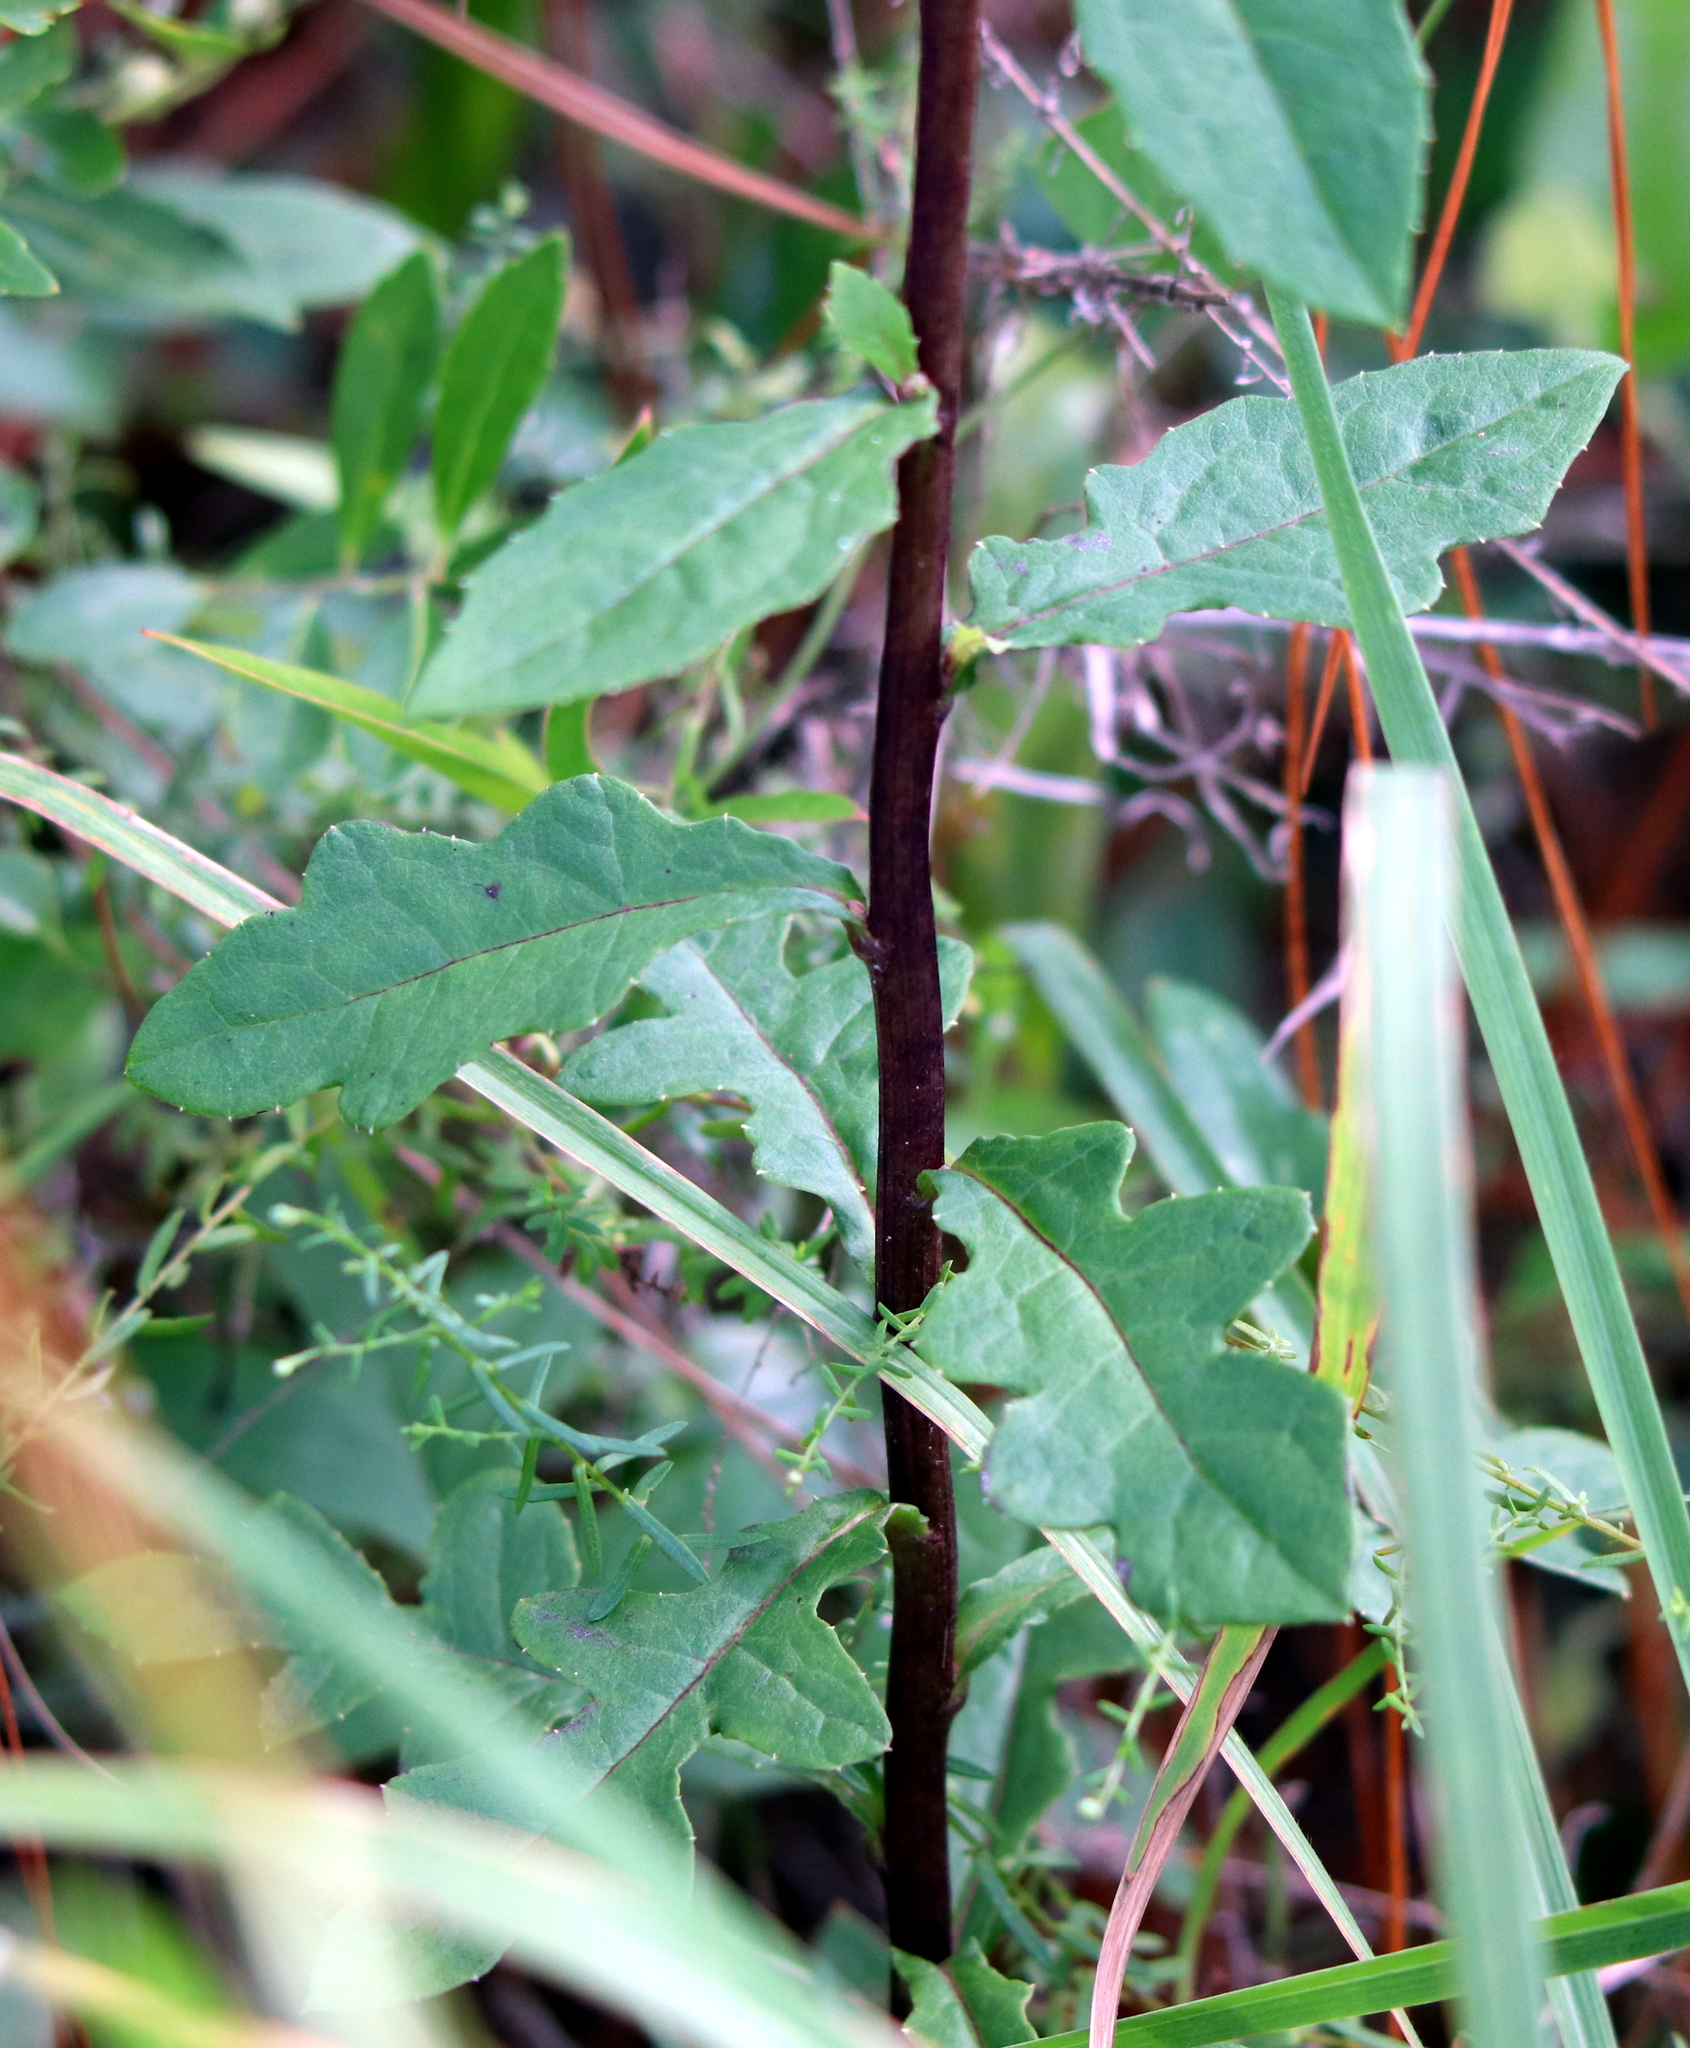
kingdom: Plantae
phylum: Tracheophyta
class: Magnoliopsida
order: Asterales
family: Asteraceae
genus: Nabalus
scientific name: Nabalus serpentarius
